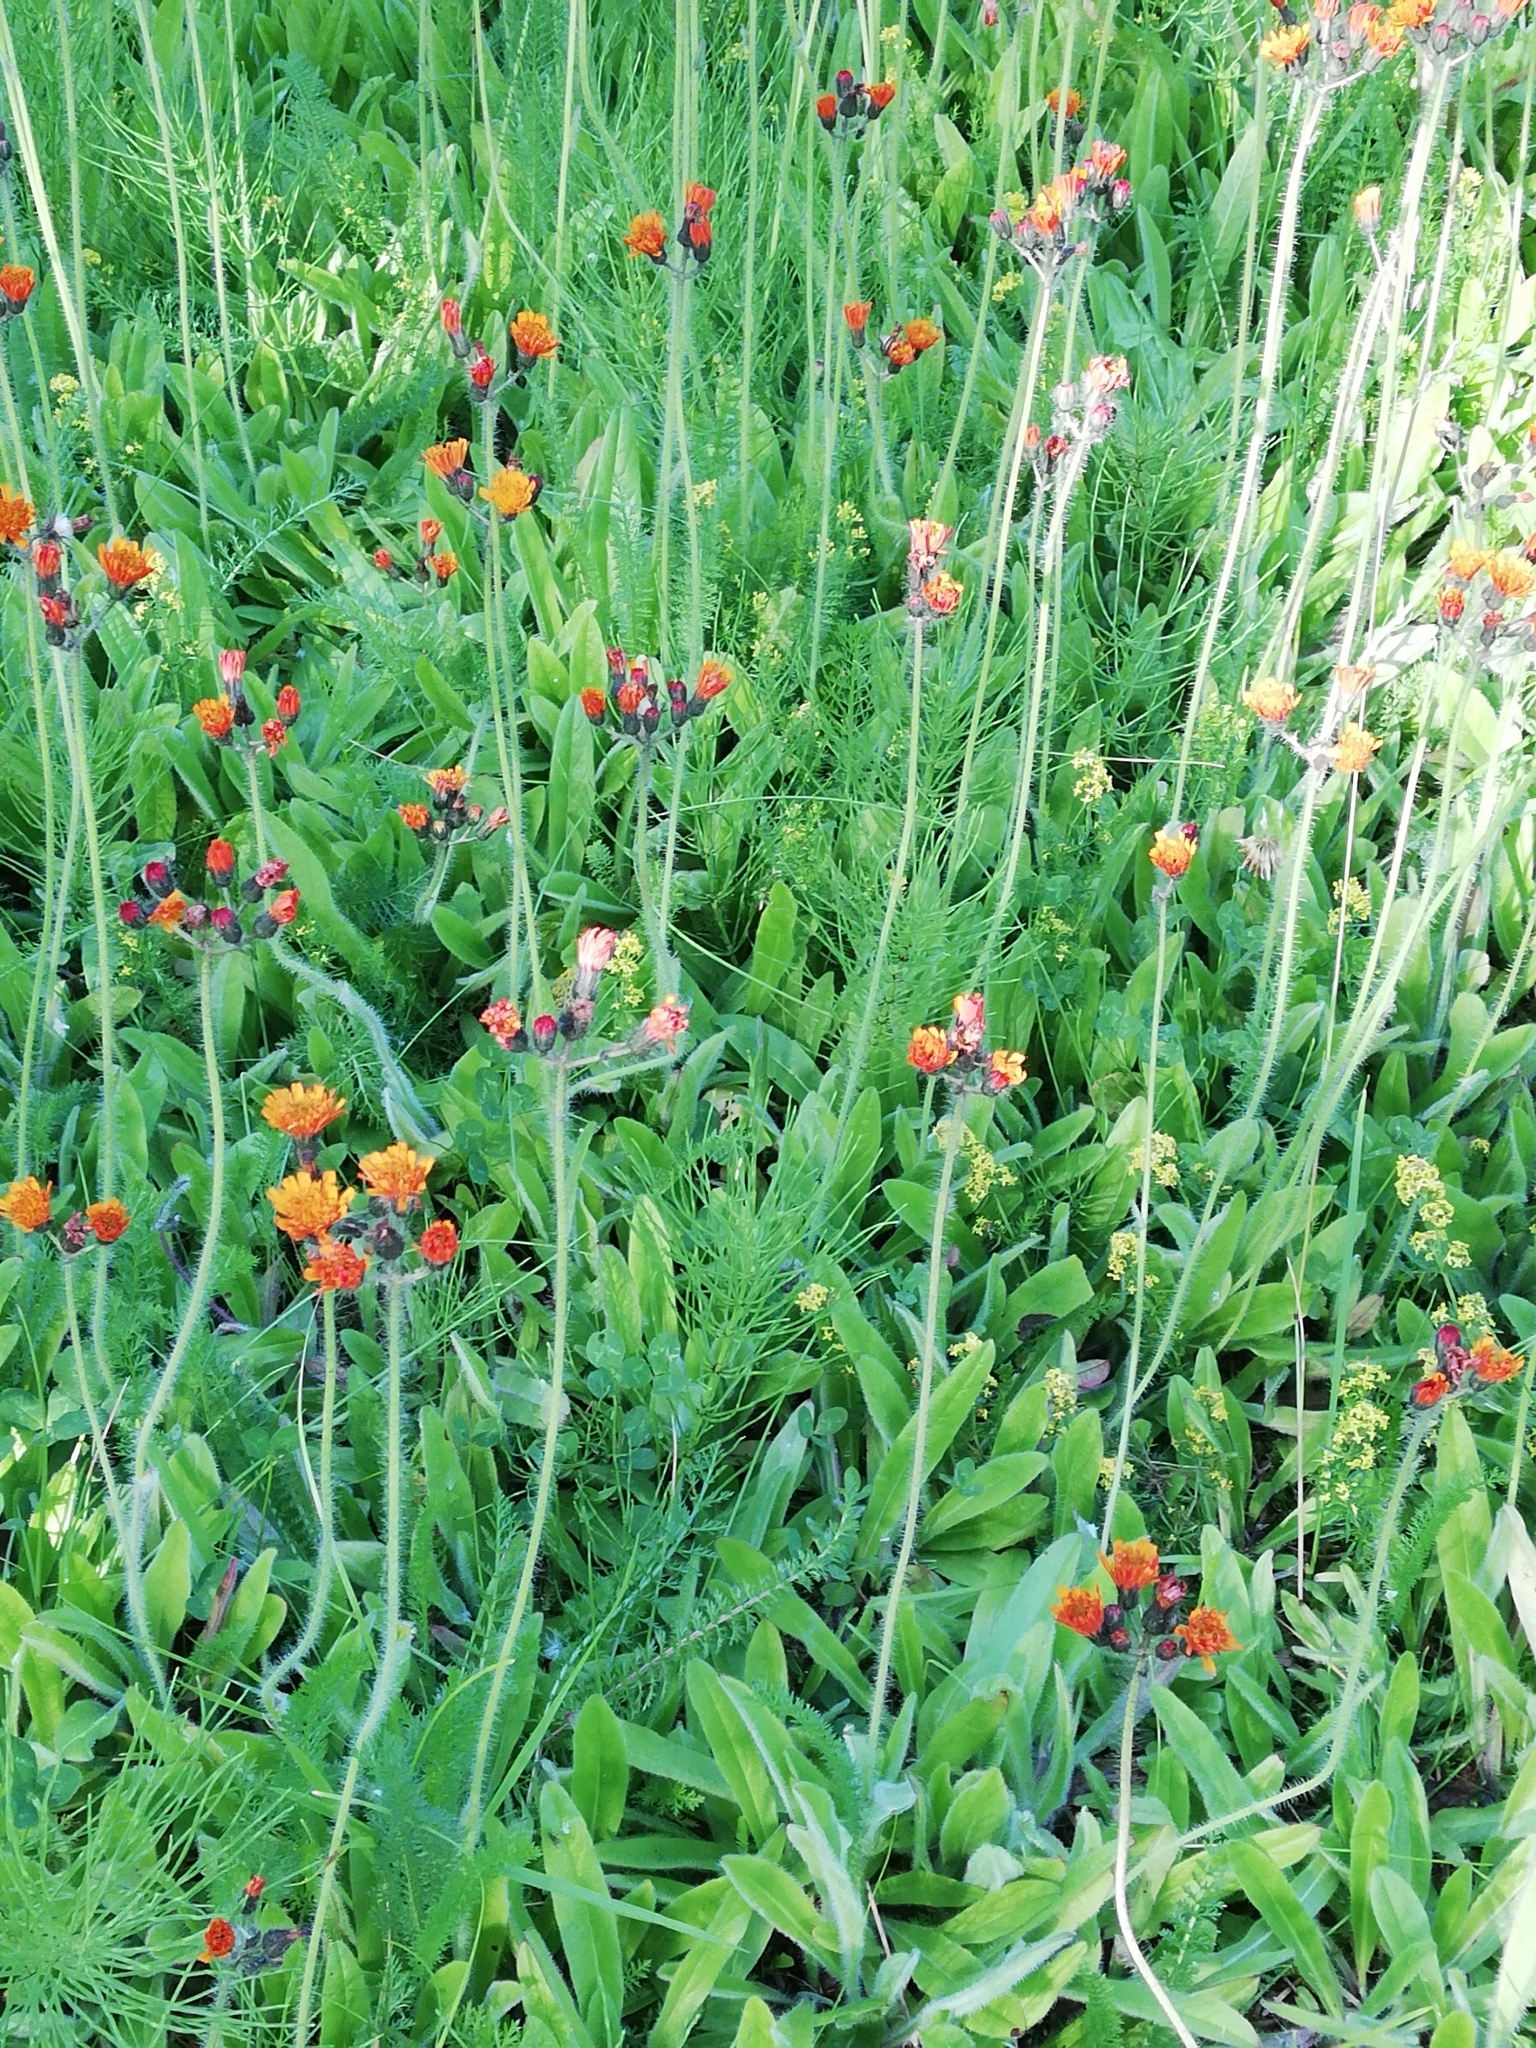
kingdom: Plantae
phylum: Tracheophyta
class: Magnoliopsida
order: Asterales
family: Asteraceae
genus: Pilosella
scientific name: Pilosella aurantiaca
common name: Fox-and-cubs
